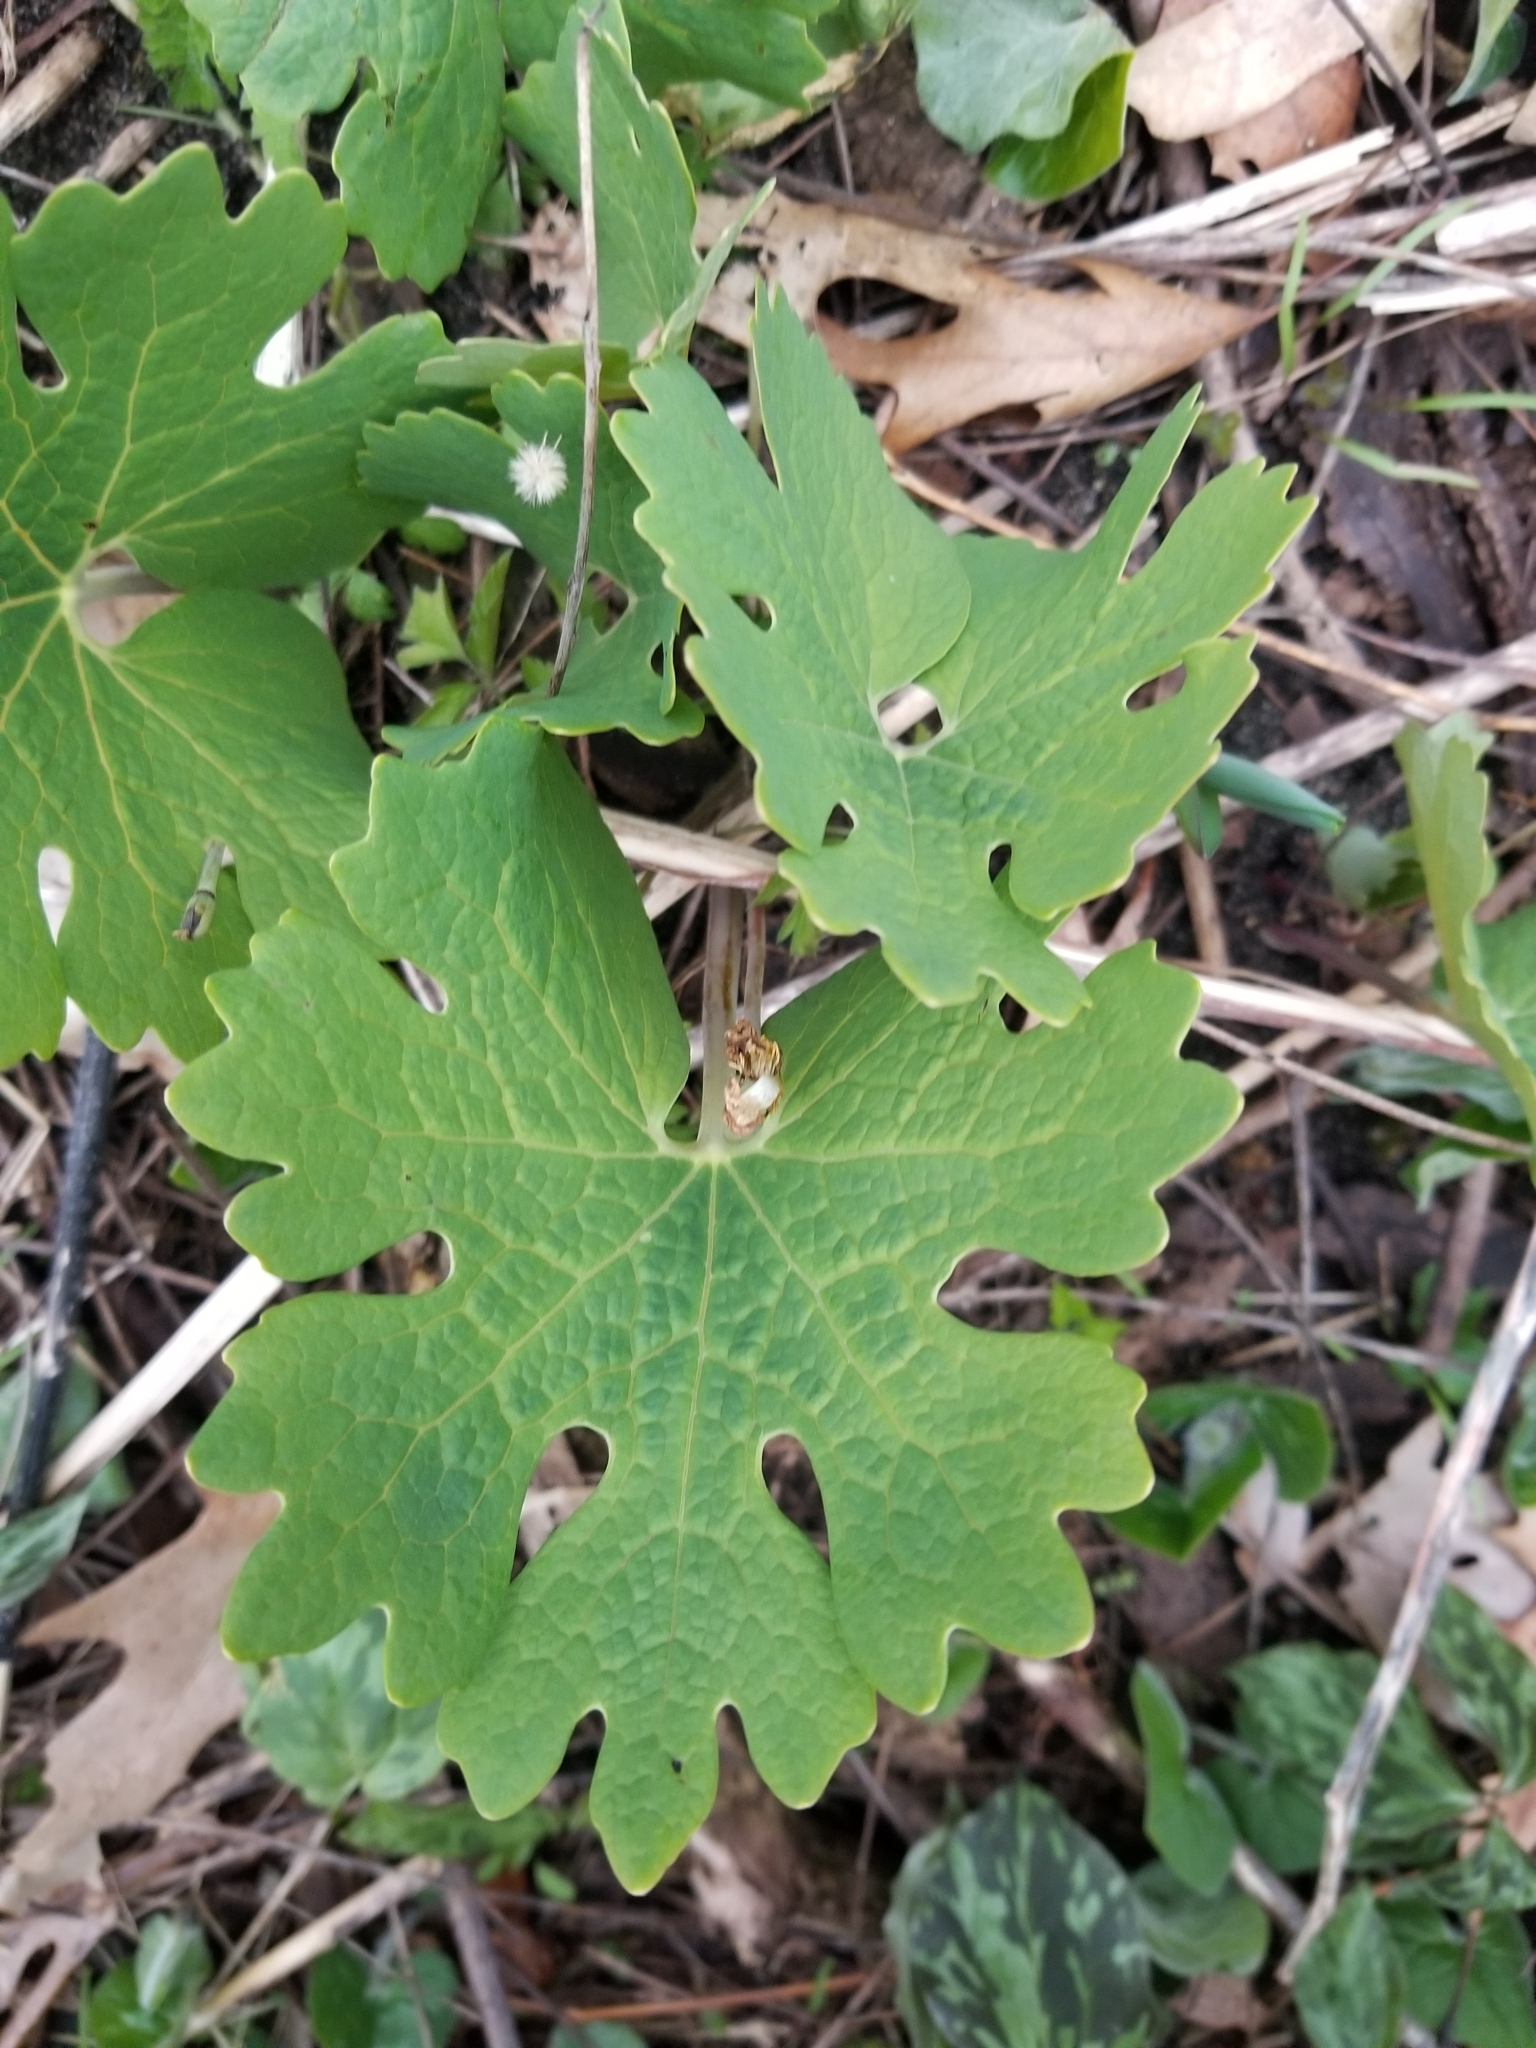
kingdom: Plantae
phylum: Tracheophyta
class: Magnoliopsida
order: Ranunculales
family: Papaveraceae
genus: Sanguinaria
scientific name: Sanguinaria canadensis
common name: Bloodroot
